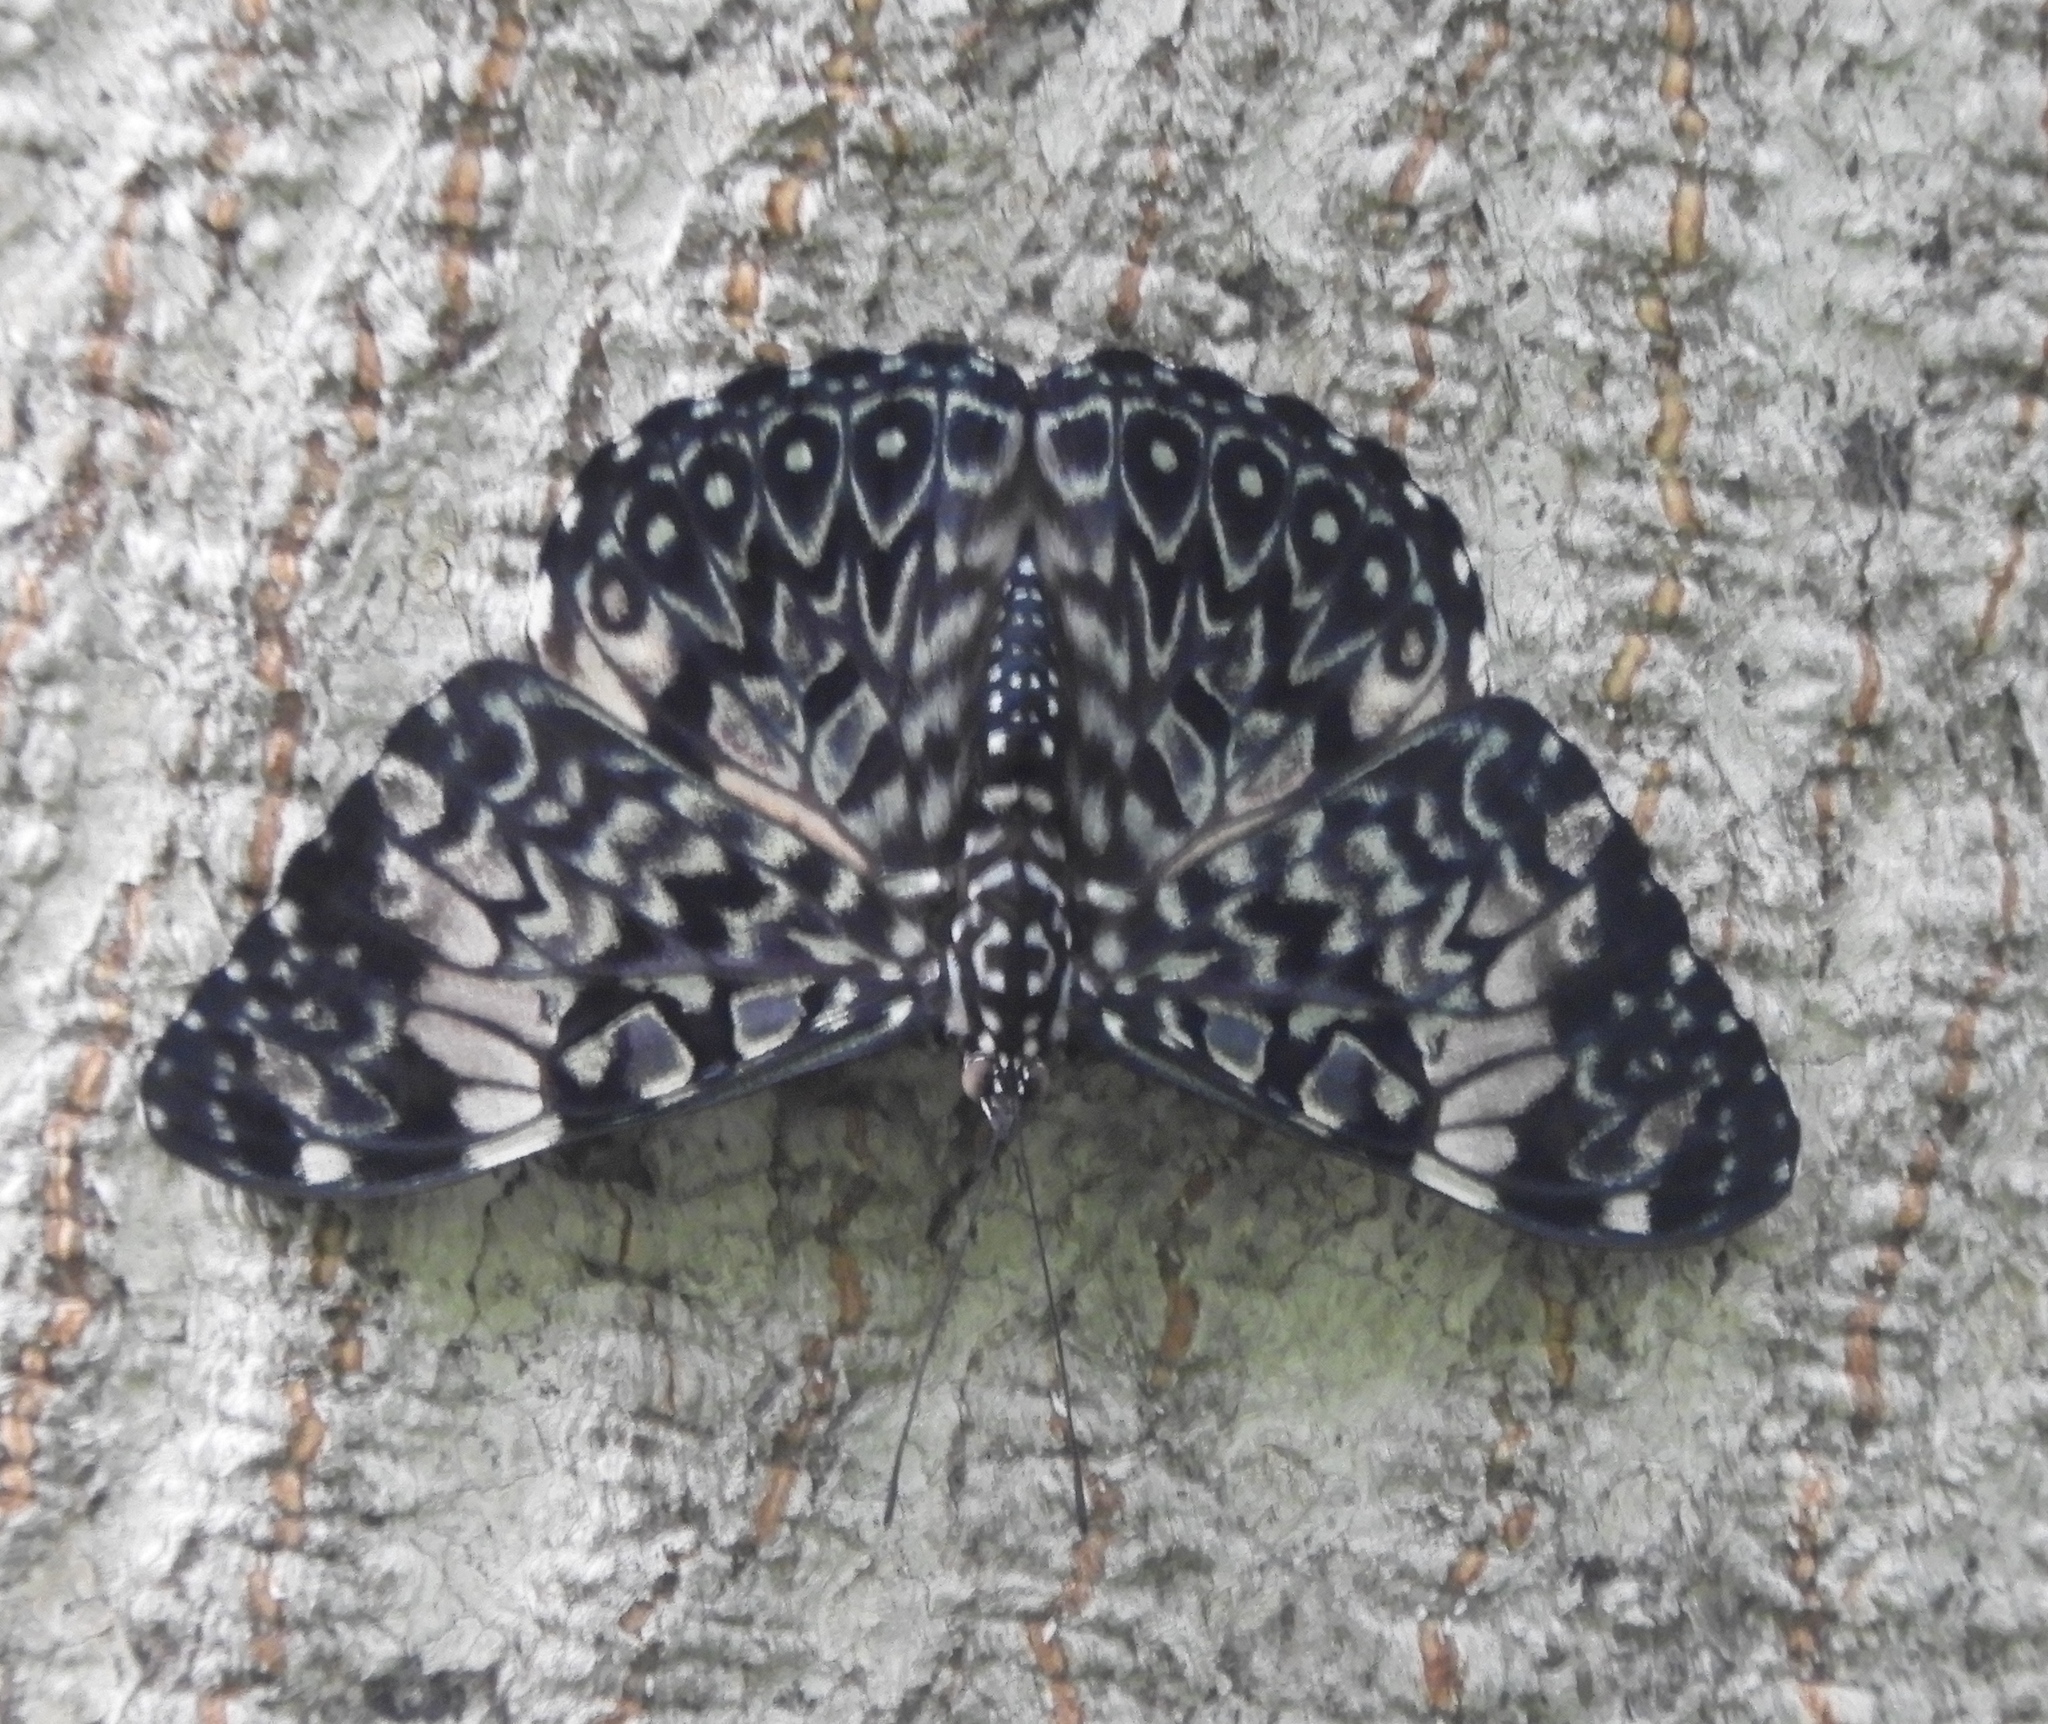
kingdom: Animalia
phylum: Arthropoda
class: Insecta
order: Lepidoptera
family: Nymphalidae
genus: Hamadryas
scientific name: Hamadryas amphinome
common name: Red cracker
